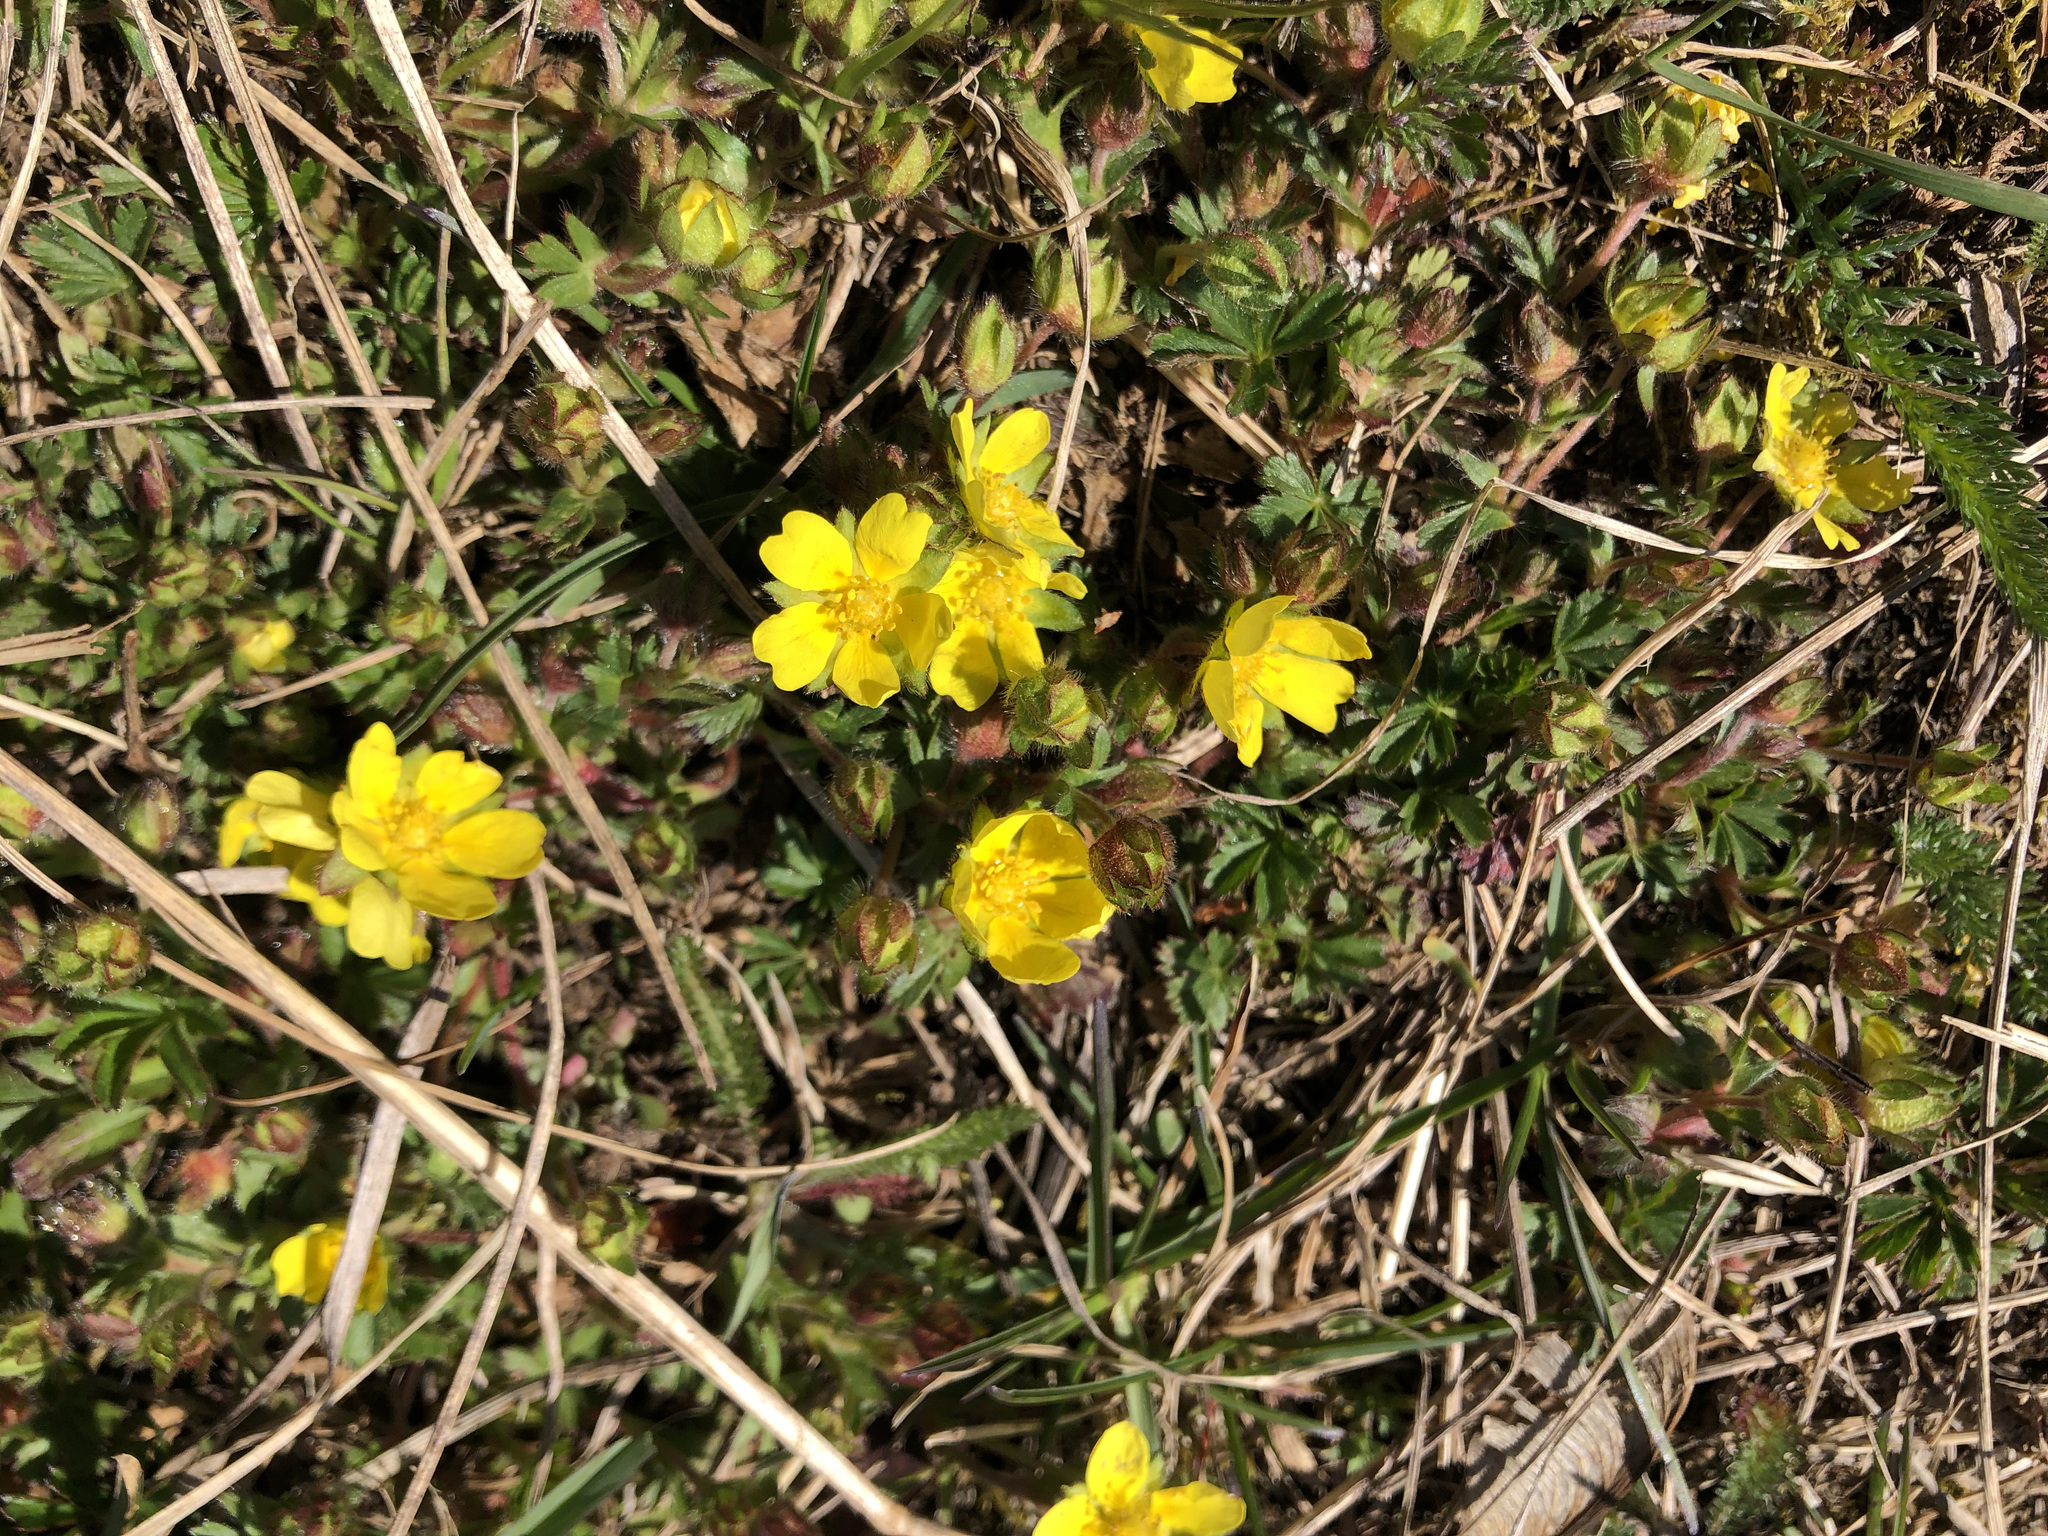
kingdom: Plantae
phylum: Tracheophyta
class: Magnoliopsida
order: Rosales
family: Rosaceae
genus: Potentilla
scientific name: Potentilla verna
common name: Spring cinquefoil
